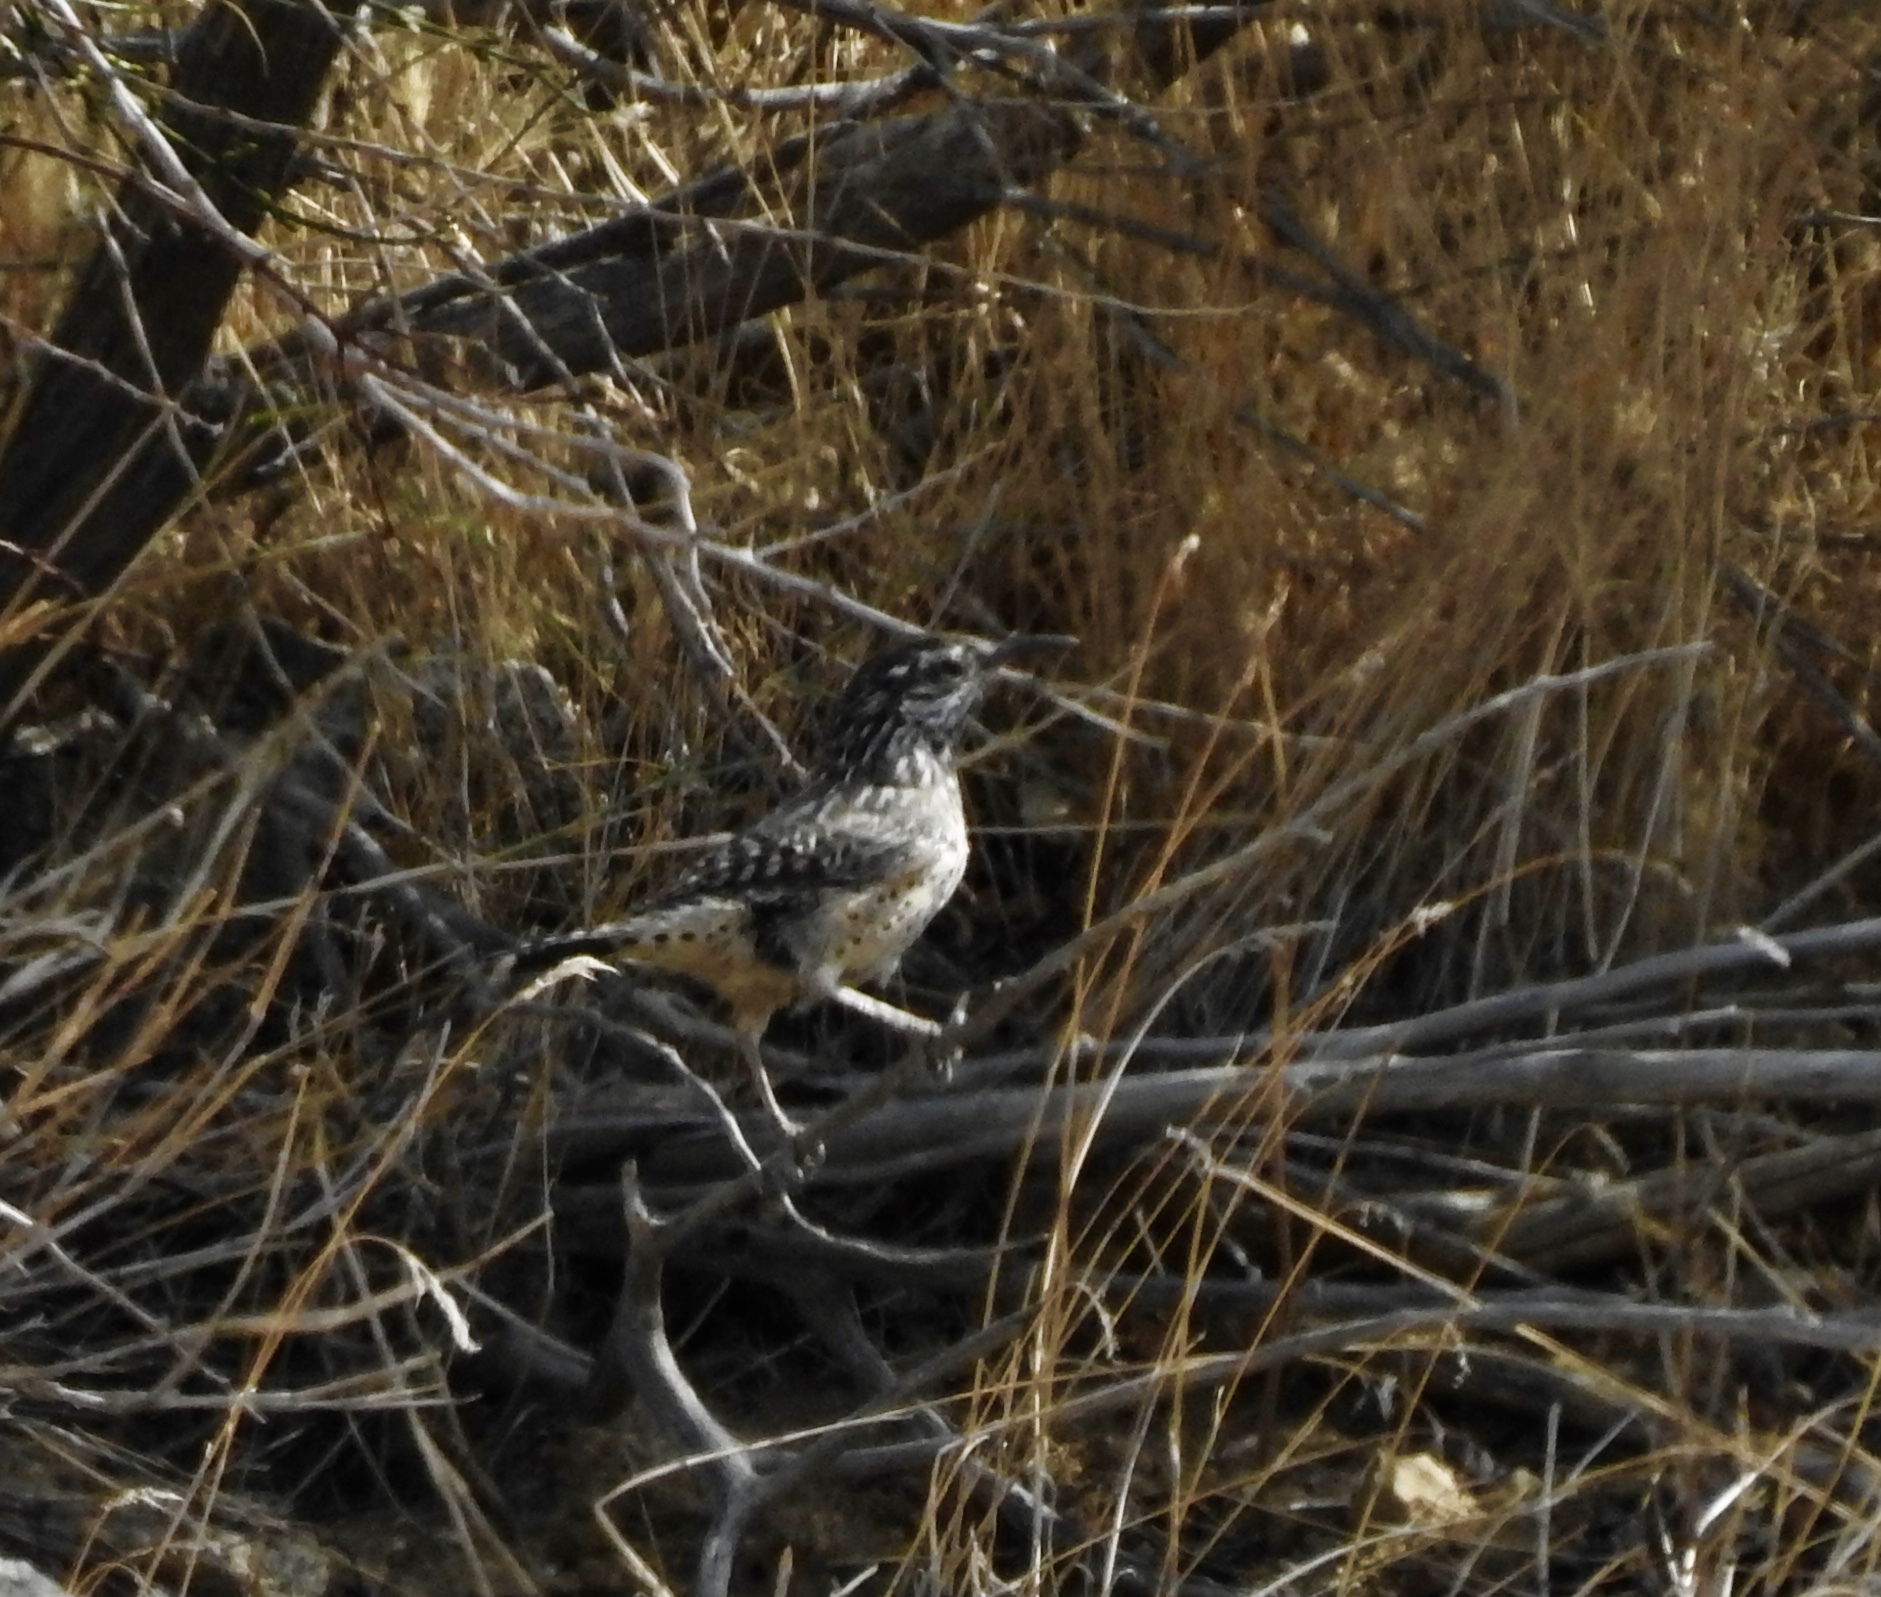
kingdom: Animalia
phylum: Chordata
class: Aves
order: Passeriformes
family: Troglodytidae
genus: Campylorhynchus
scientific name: Campylorhynchus brunneicapillus
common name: Cactus wren
